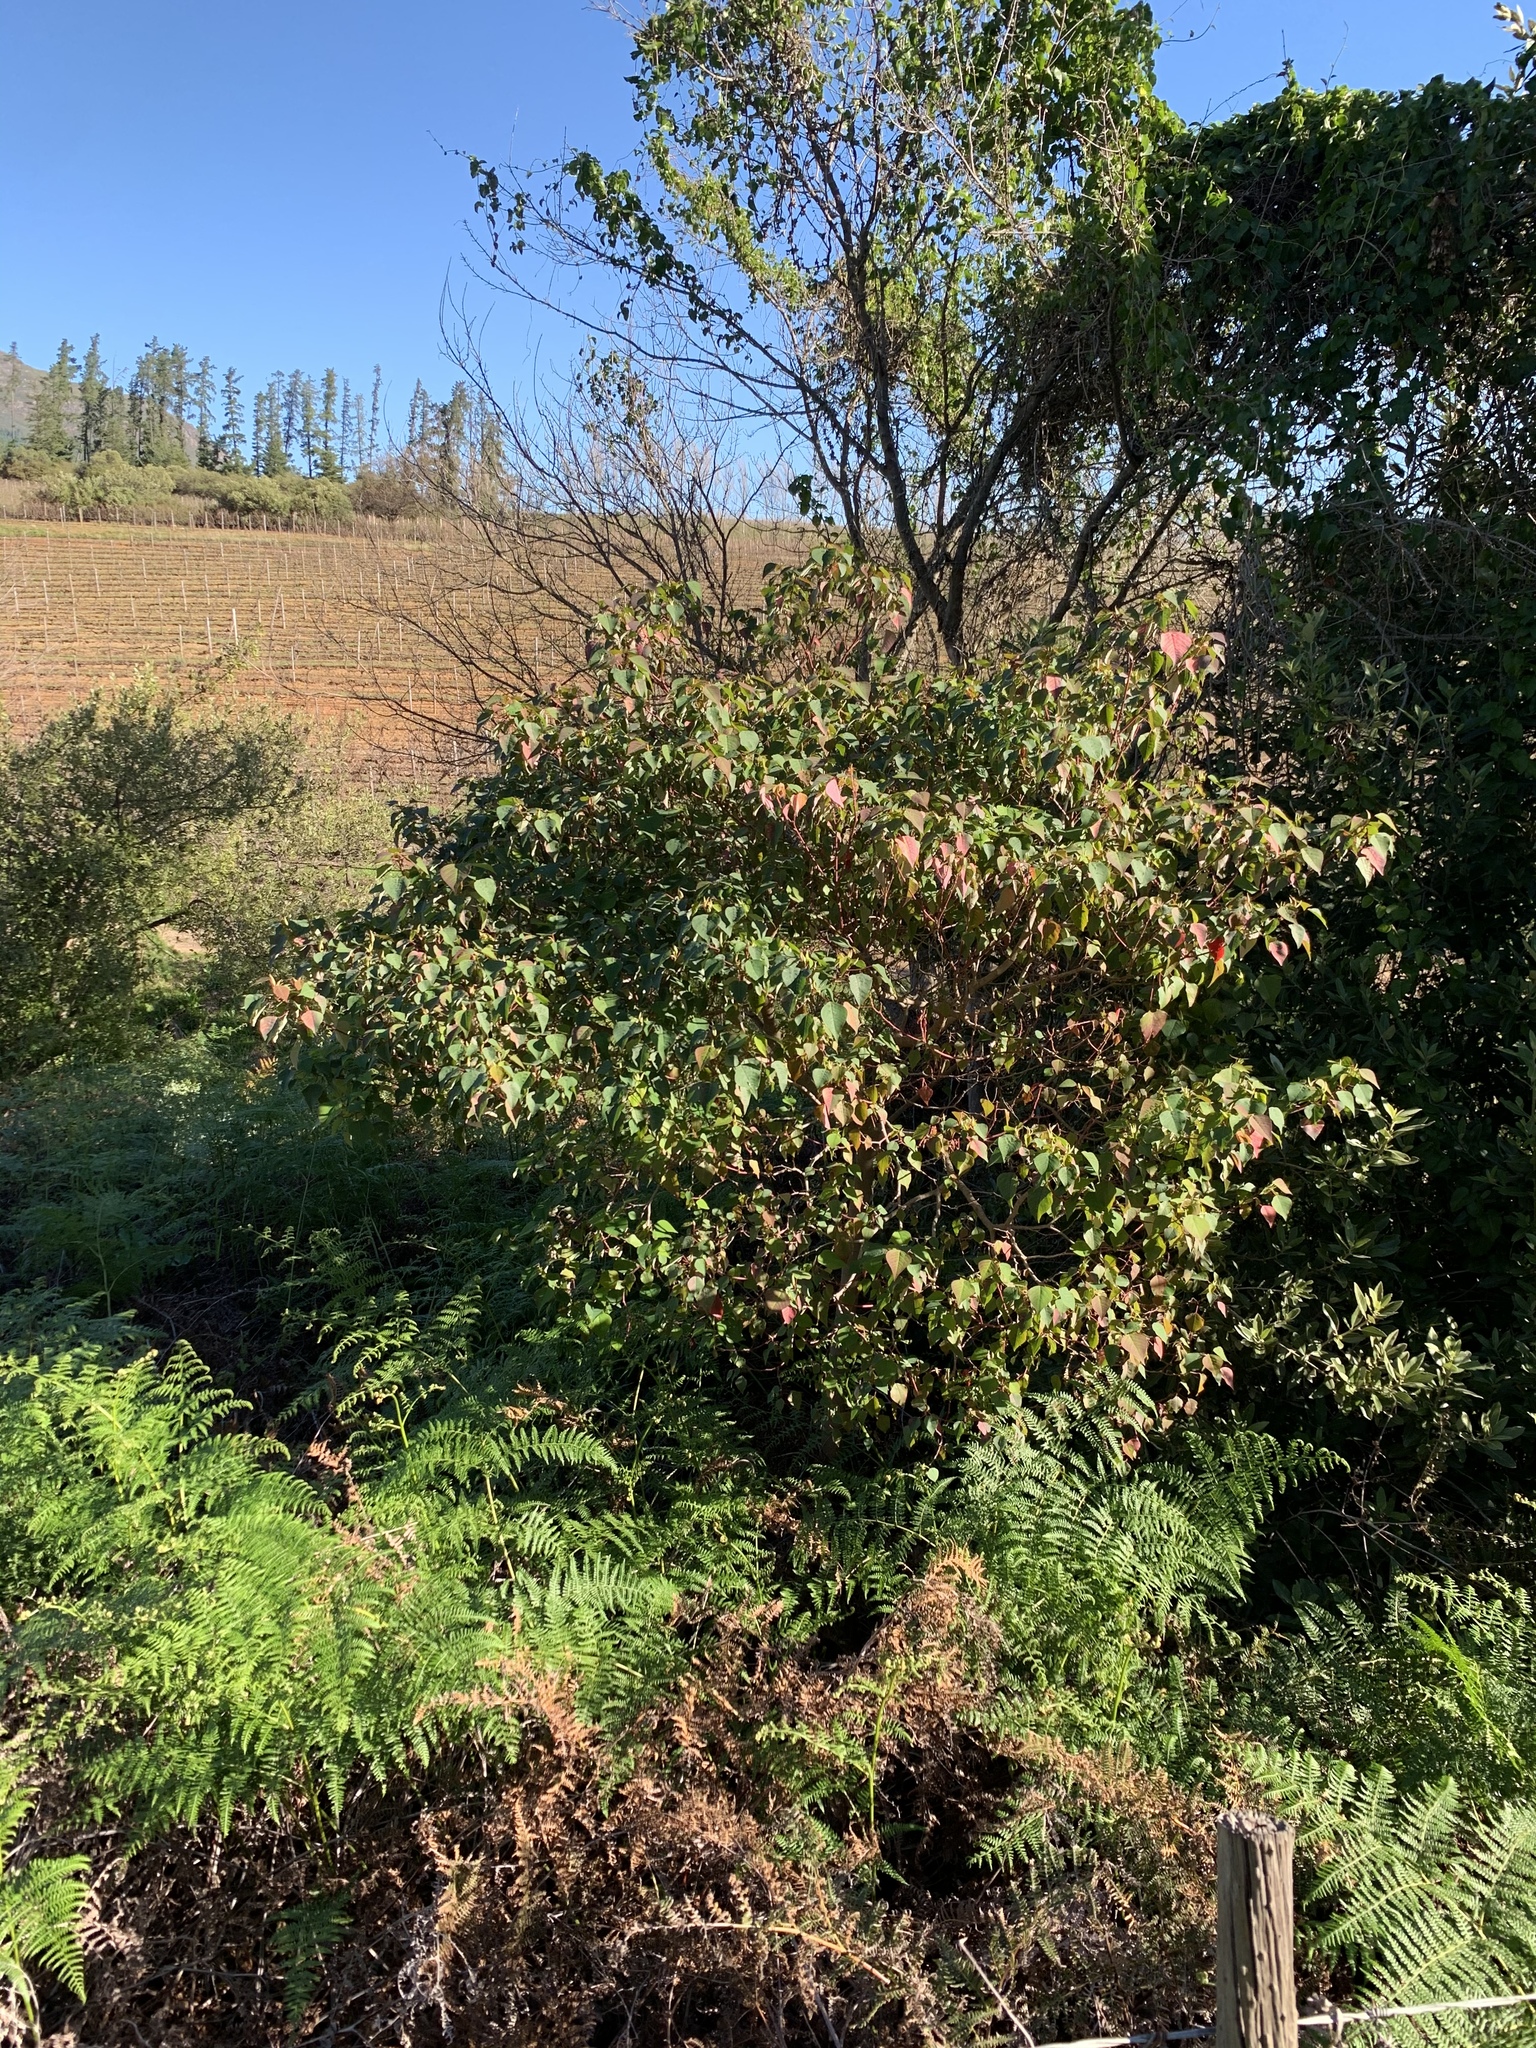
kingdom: Plantae
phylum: Tracheophyta
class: Magnoliopsida
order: Malpighiales
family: Euphorbiaceae
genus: Homalanthus
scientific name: Homalanthus populifolius
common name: Queensland poplar
